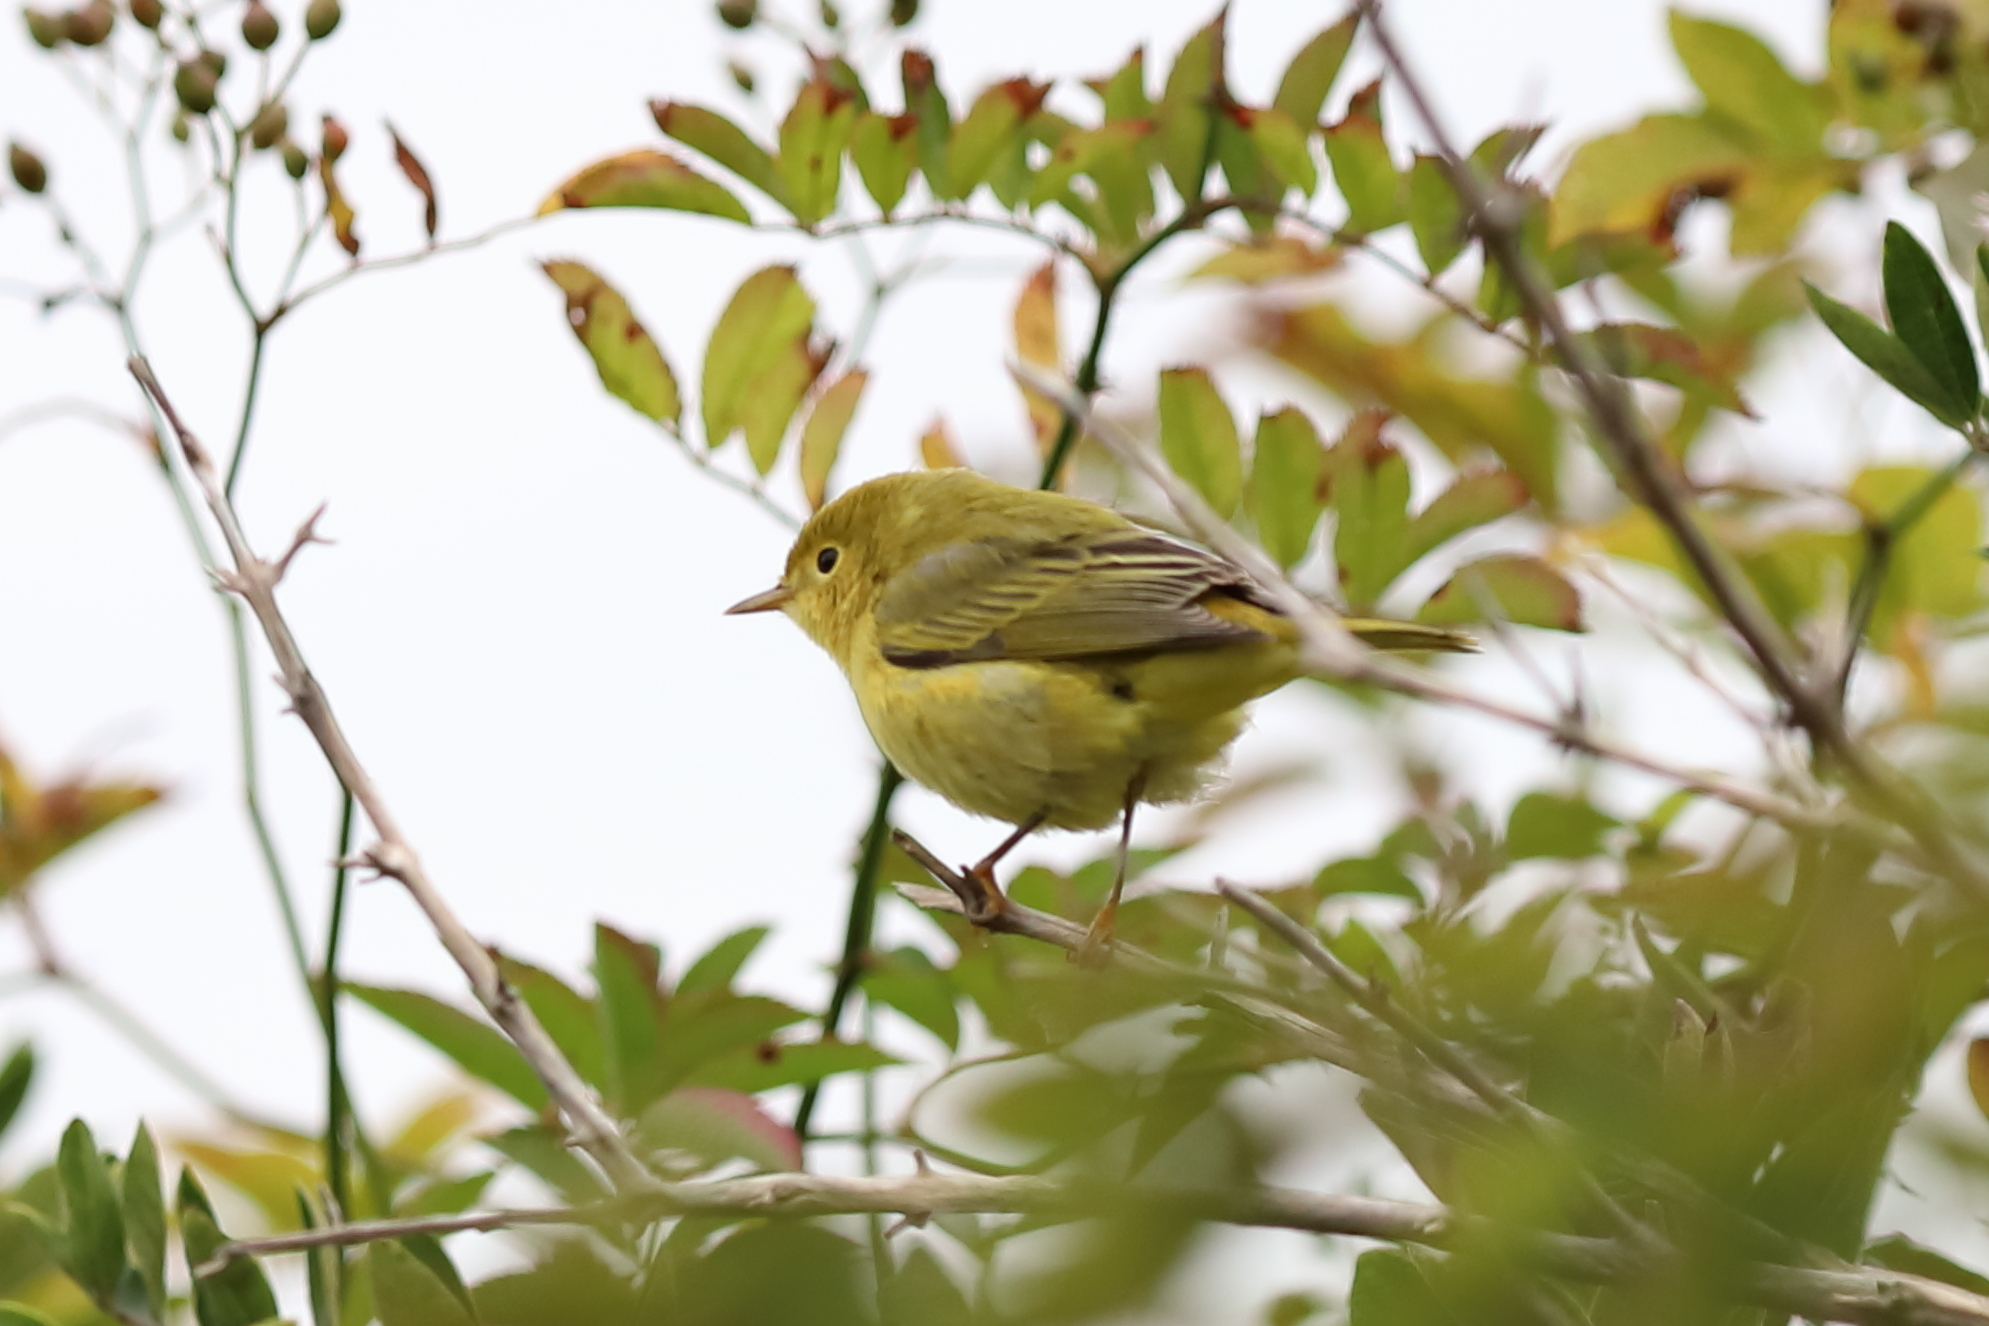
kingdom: Animalia
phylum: Chordata
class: Aves
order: Passeriformes
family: Parulidae
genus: Setophaga
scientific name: Setophaga petechia
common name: Yellow warbler
